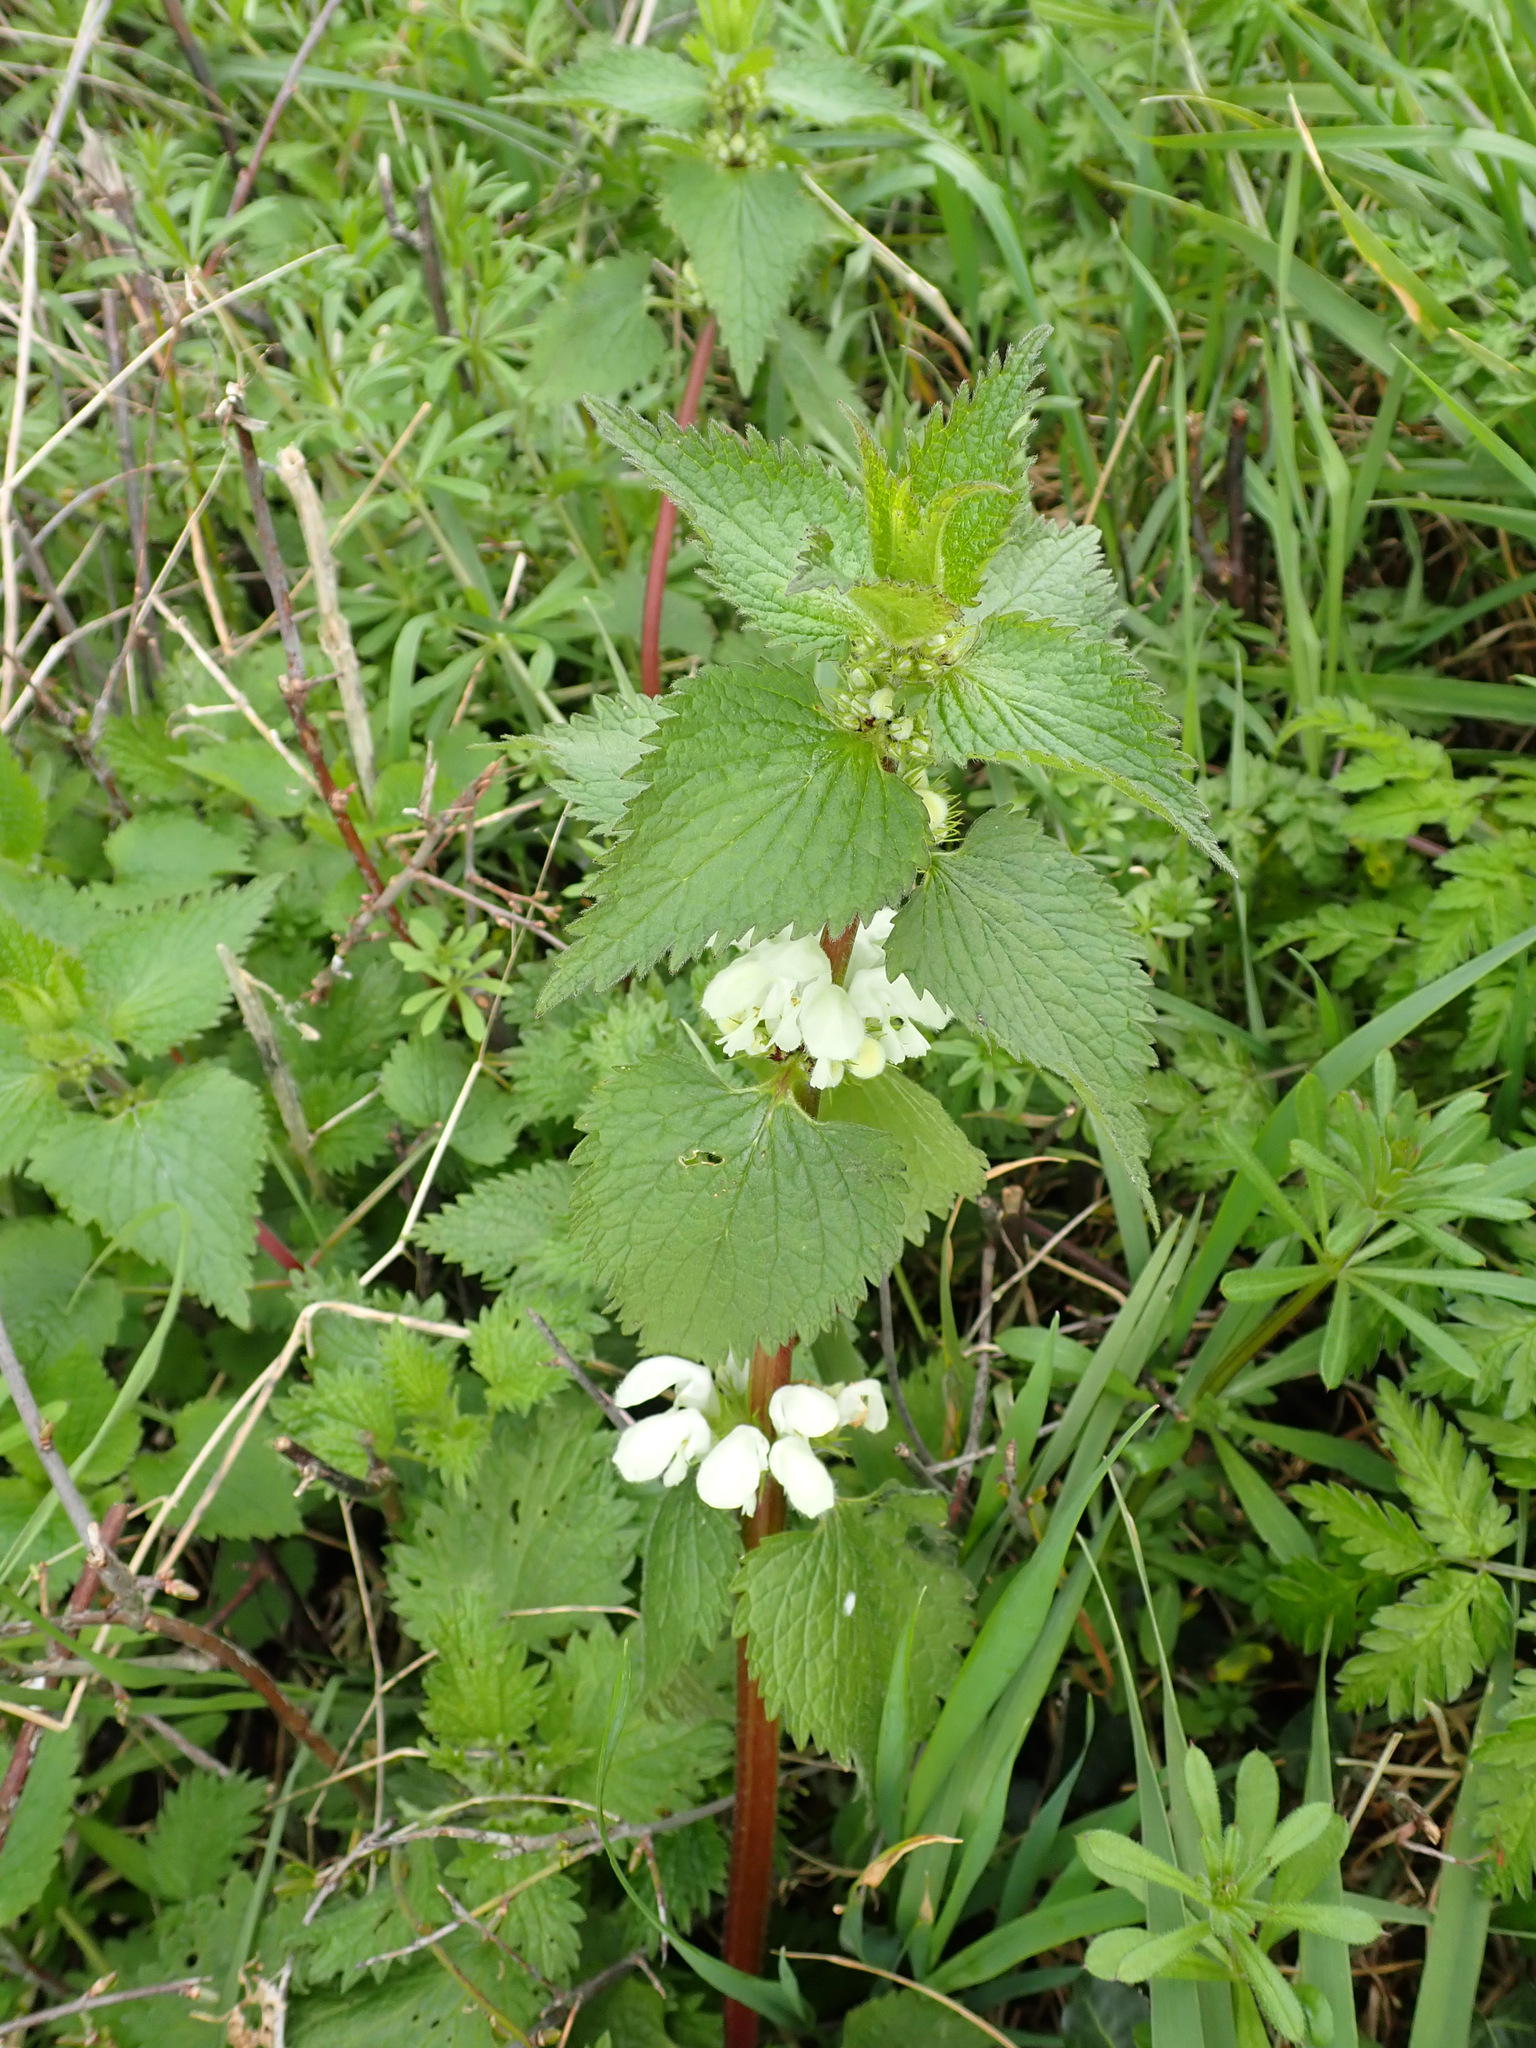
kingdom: Plantae
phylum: Tracheophyta
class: Magnoliopsida
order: Lamiales
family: Lamiaceae
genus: Lamium
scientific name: Lamium album
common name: White dead-nettle
